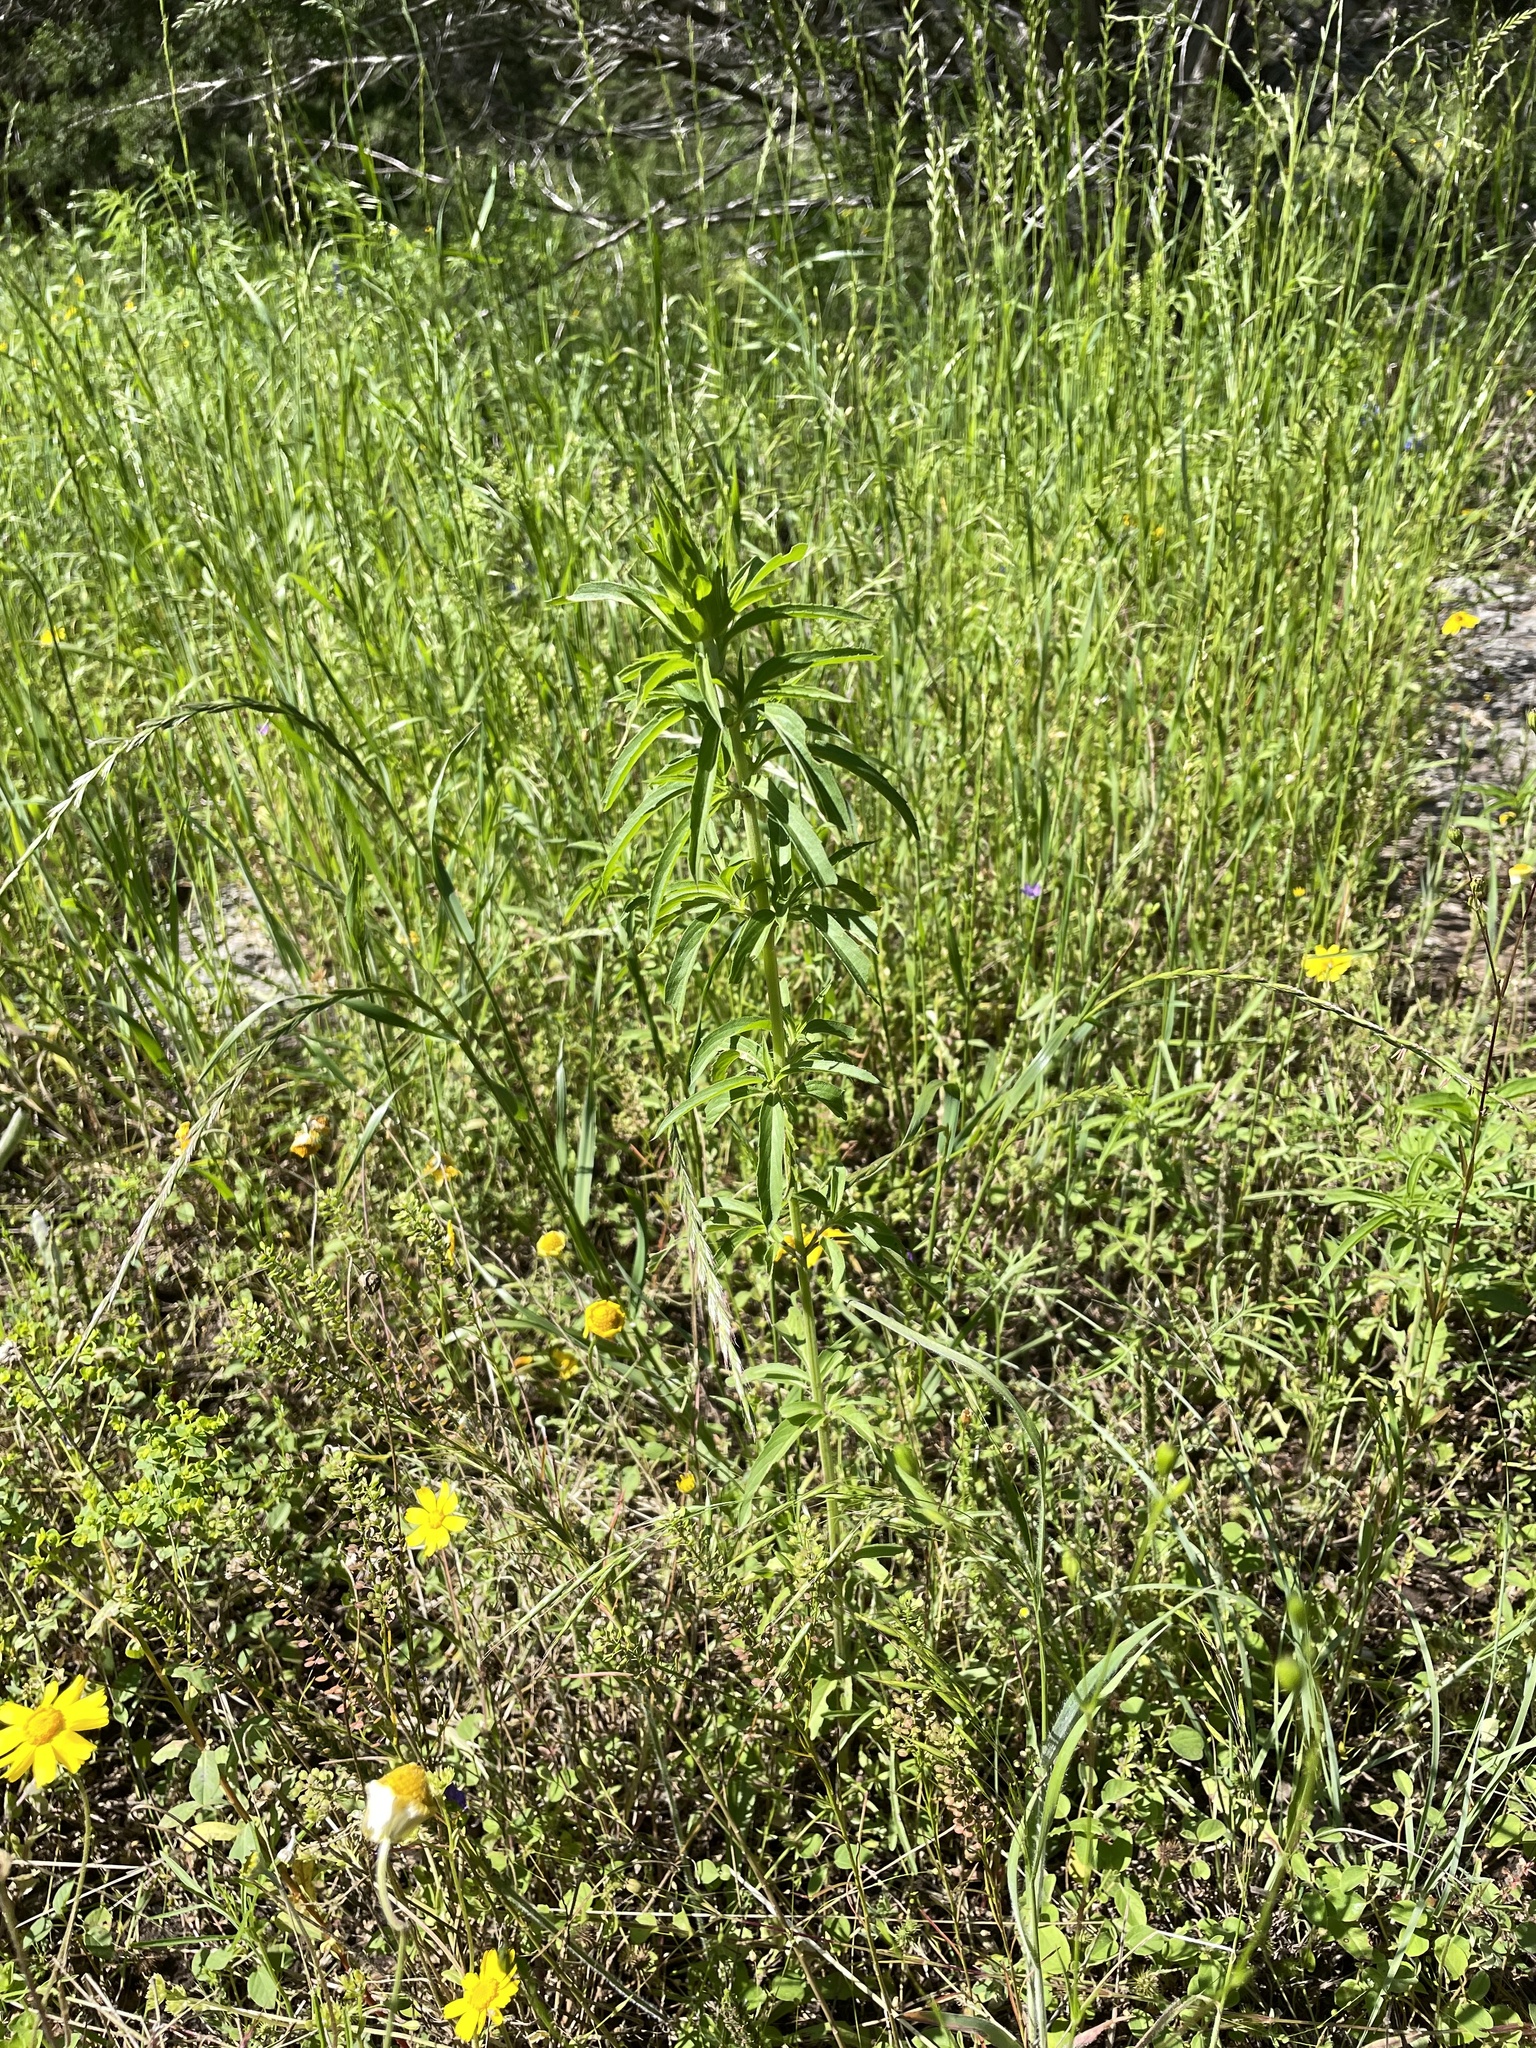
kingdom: Plantae
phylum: Tracheophyta
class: Magnoliopsida
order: Lamiales
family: Lamiaceae
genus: Monarda
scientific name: Monarda citriodora
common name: Lemon beebalm
